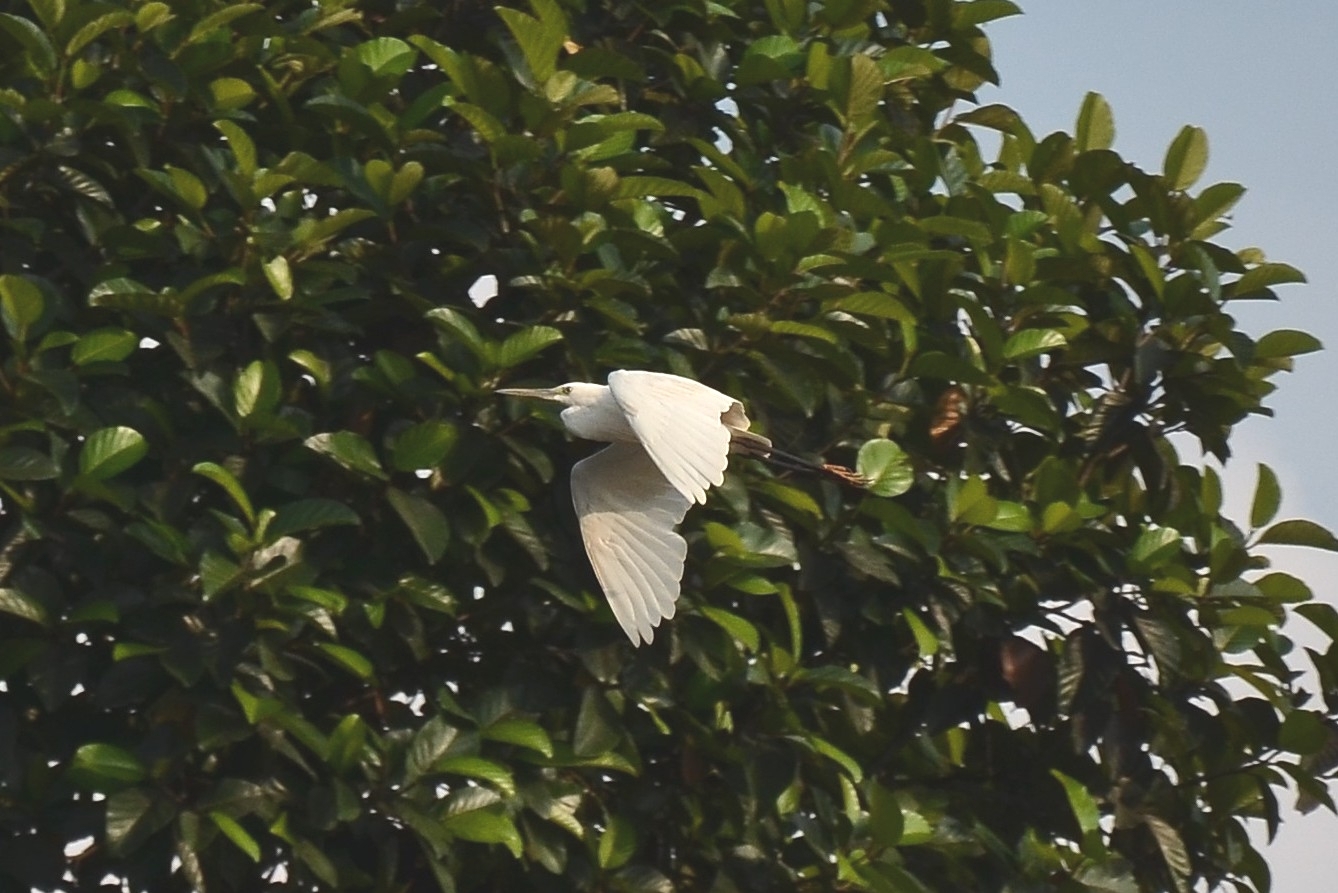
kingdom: Animalia
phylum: Chordata
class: Aves
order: Pelecaniformes
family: Ardeidae
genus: Egretta
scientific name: Egretta garzetta
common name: Little egret
